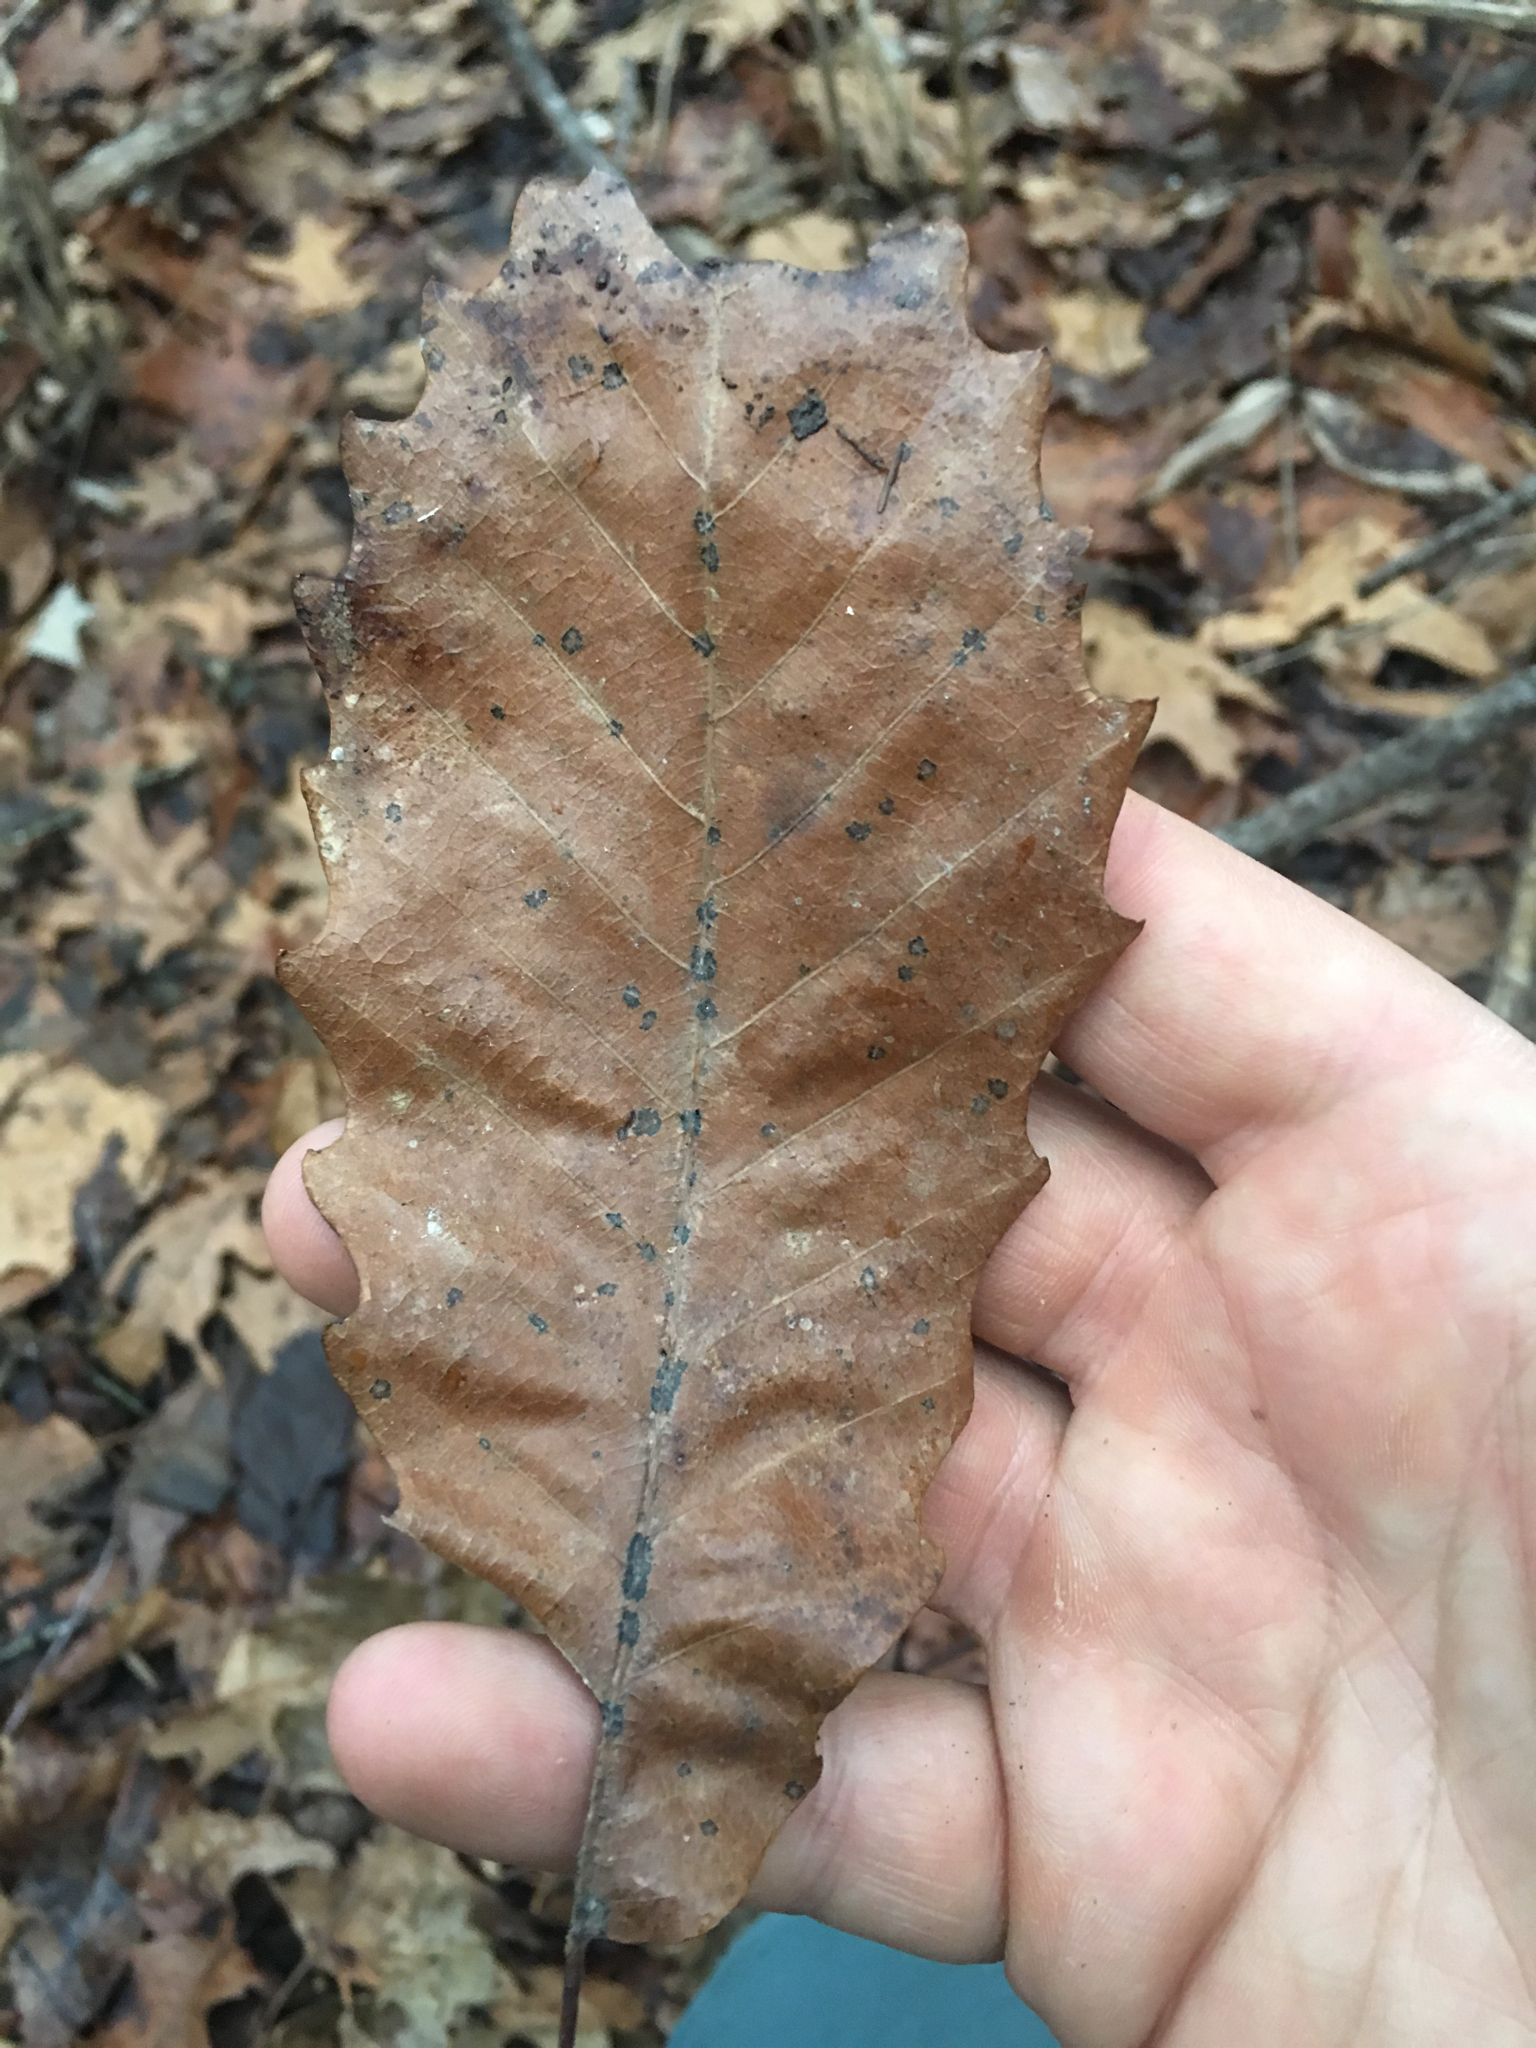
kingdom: Plantae
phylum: Tracheophyta
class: Magnoliopsida
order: Fagales
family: Fagaceae
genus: Quercus
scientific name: Quercus muehlenbergii
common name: Chinkapin oak
